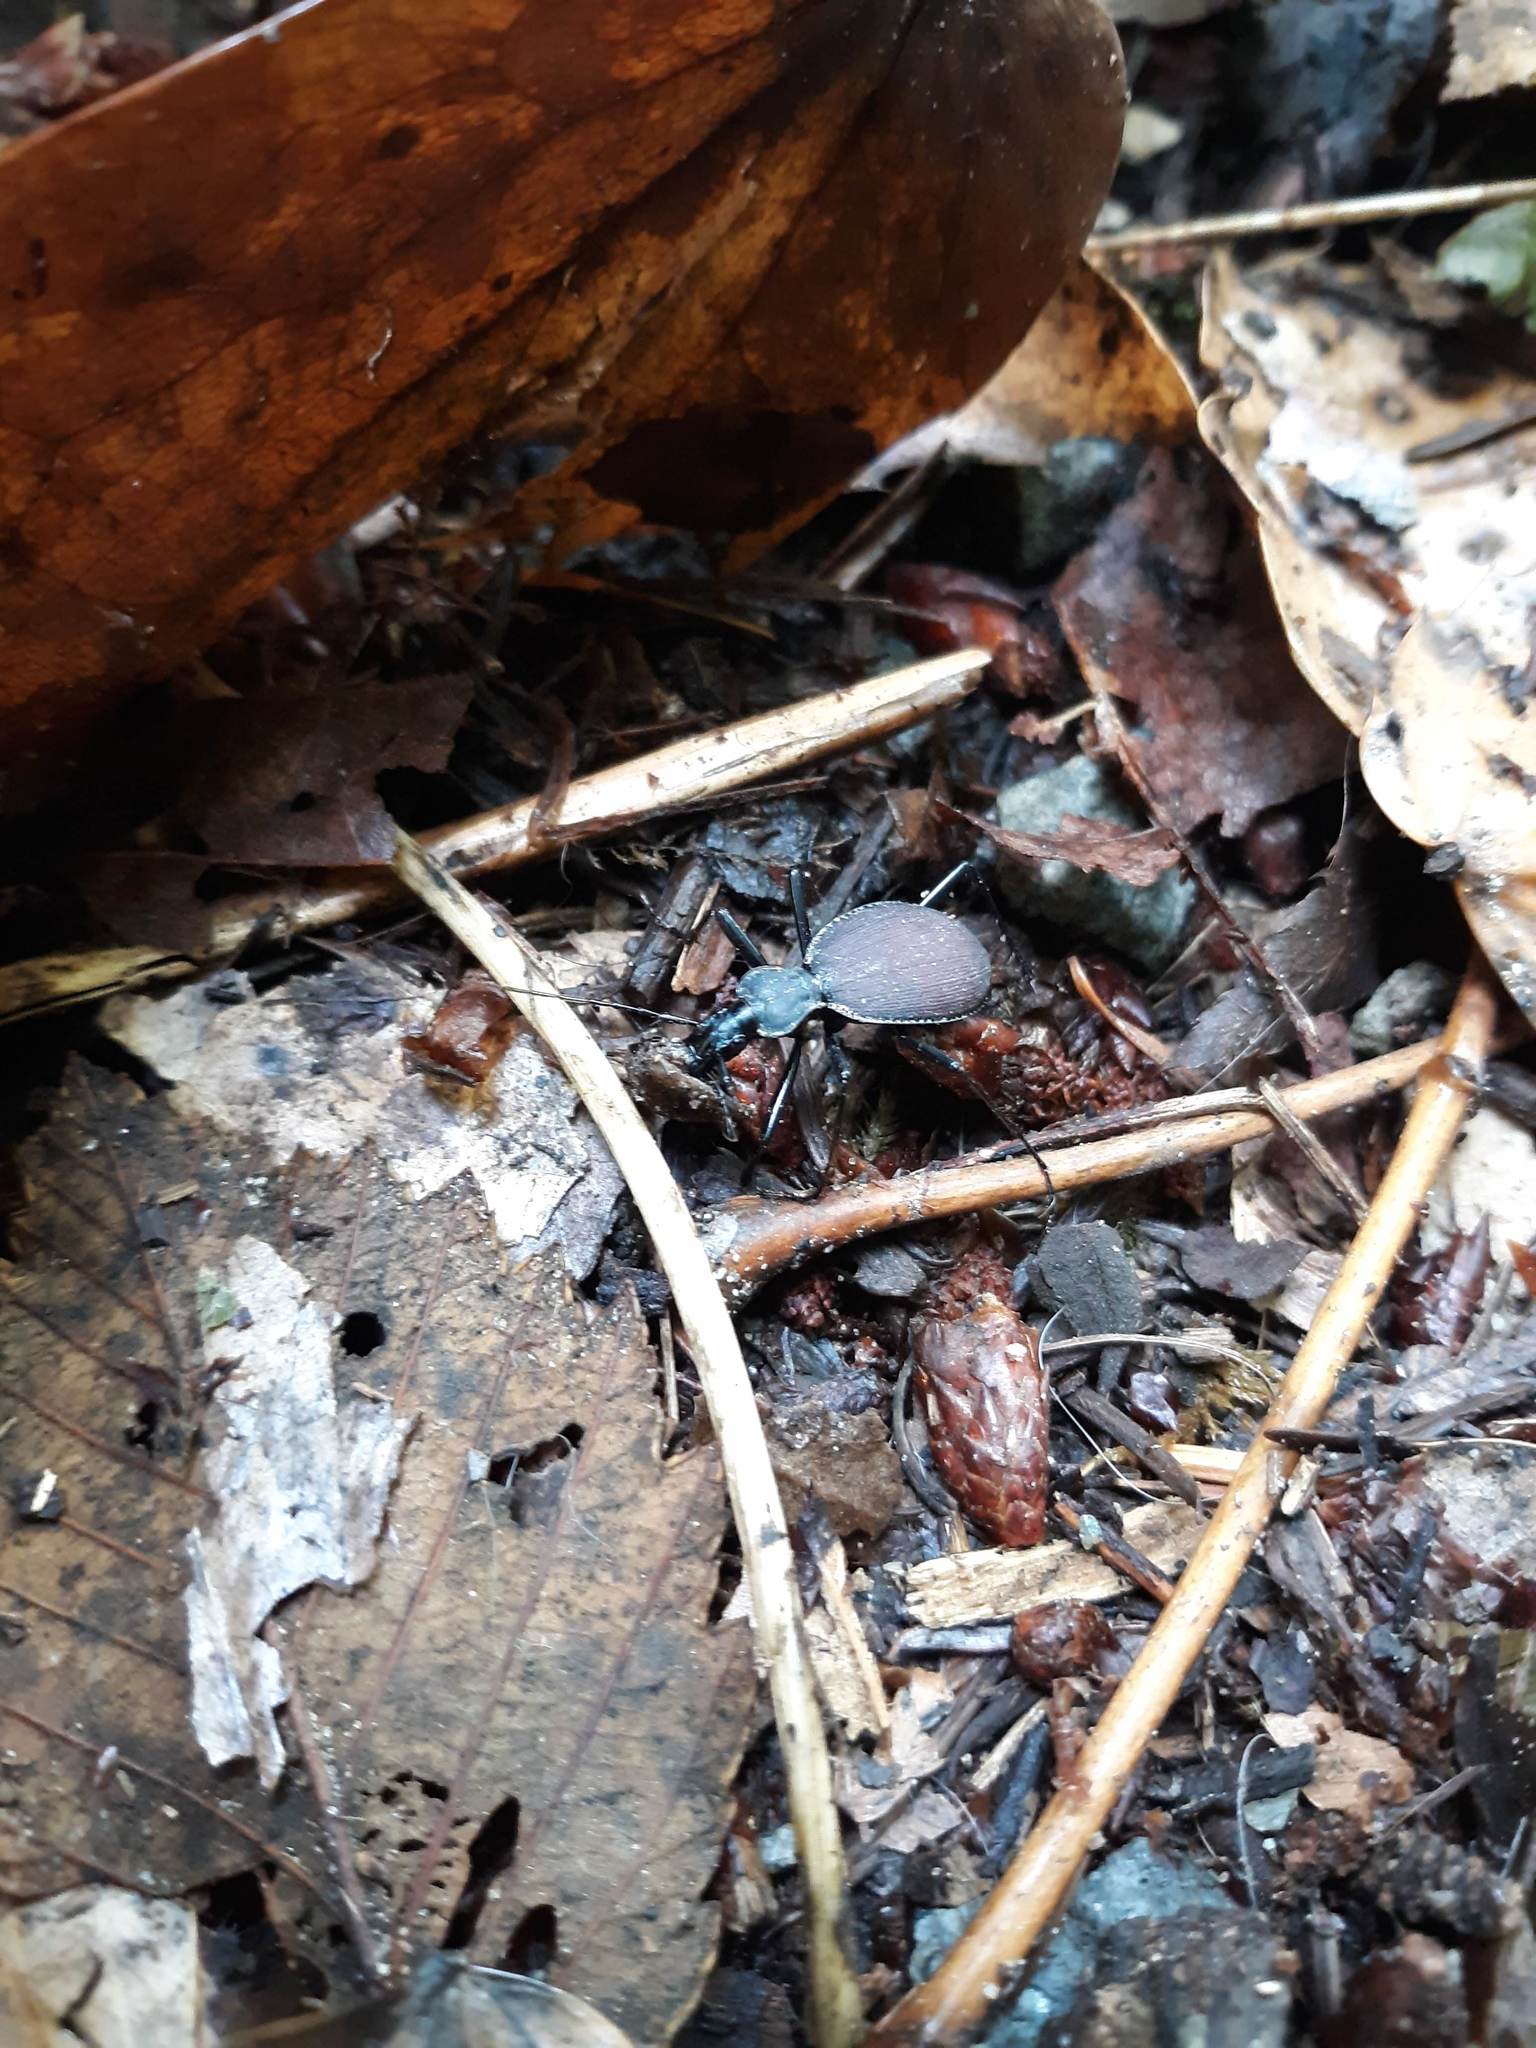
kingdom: Animalia
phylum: Arthropoda
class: Insecta
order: Coleoptera
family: Carabidae
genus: Scaphinotus
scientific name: Scaphinotus angusticollis
